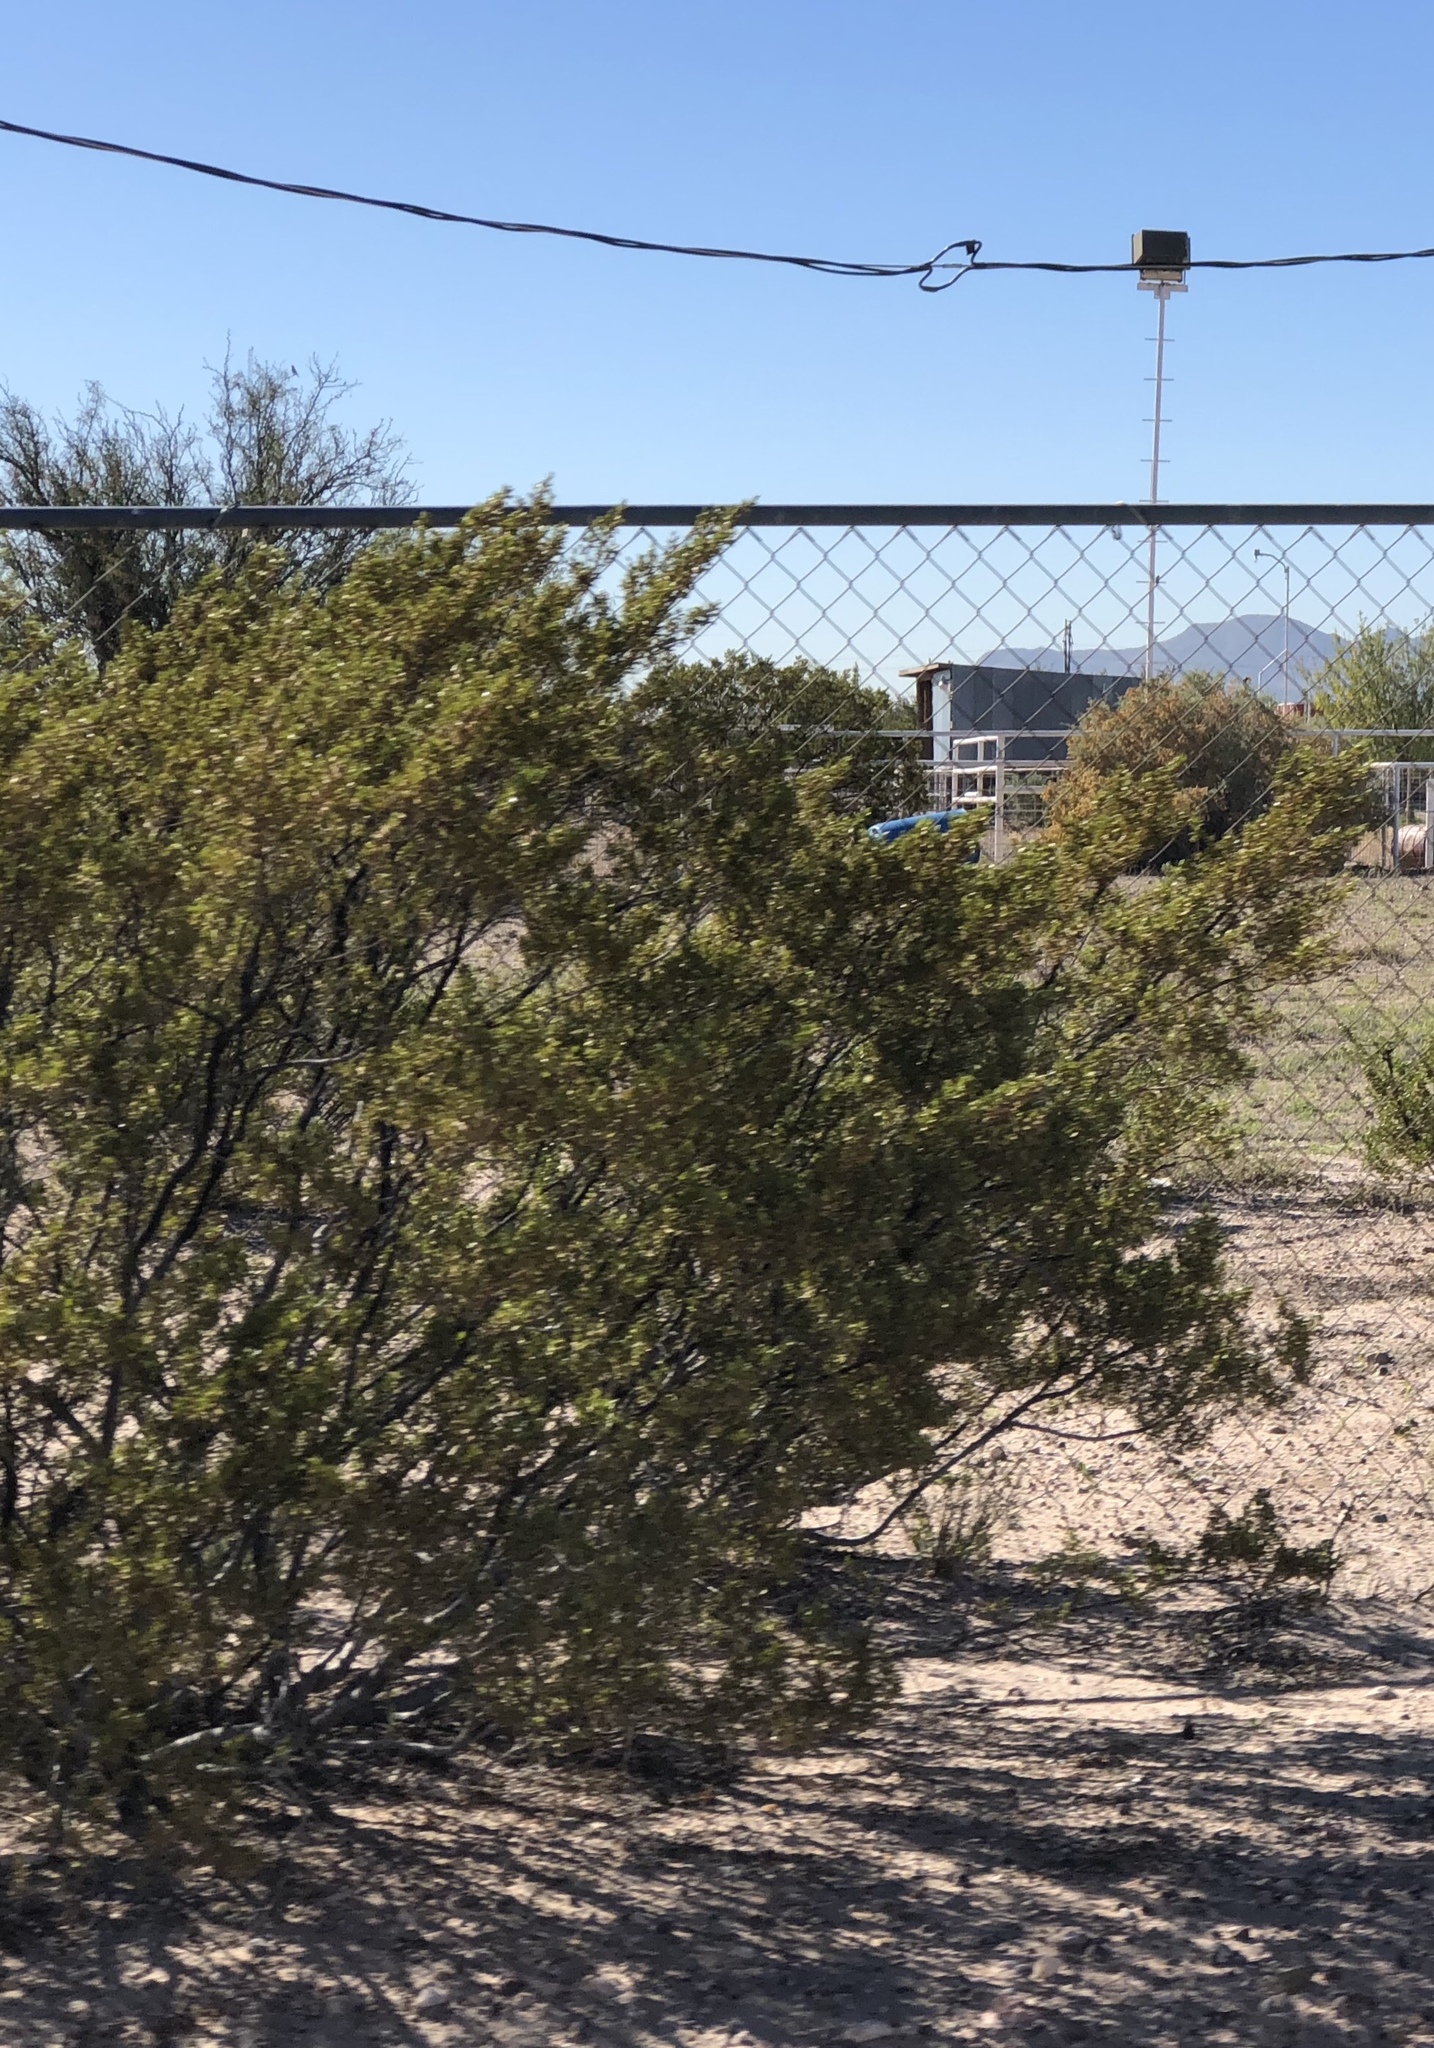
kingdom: Plantae
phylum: Tracheophyta
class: Magnoliopsida
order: Zygophyllales
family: Zygophyllaceae
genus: Larrea
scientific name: Larrea tridentata
